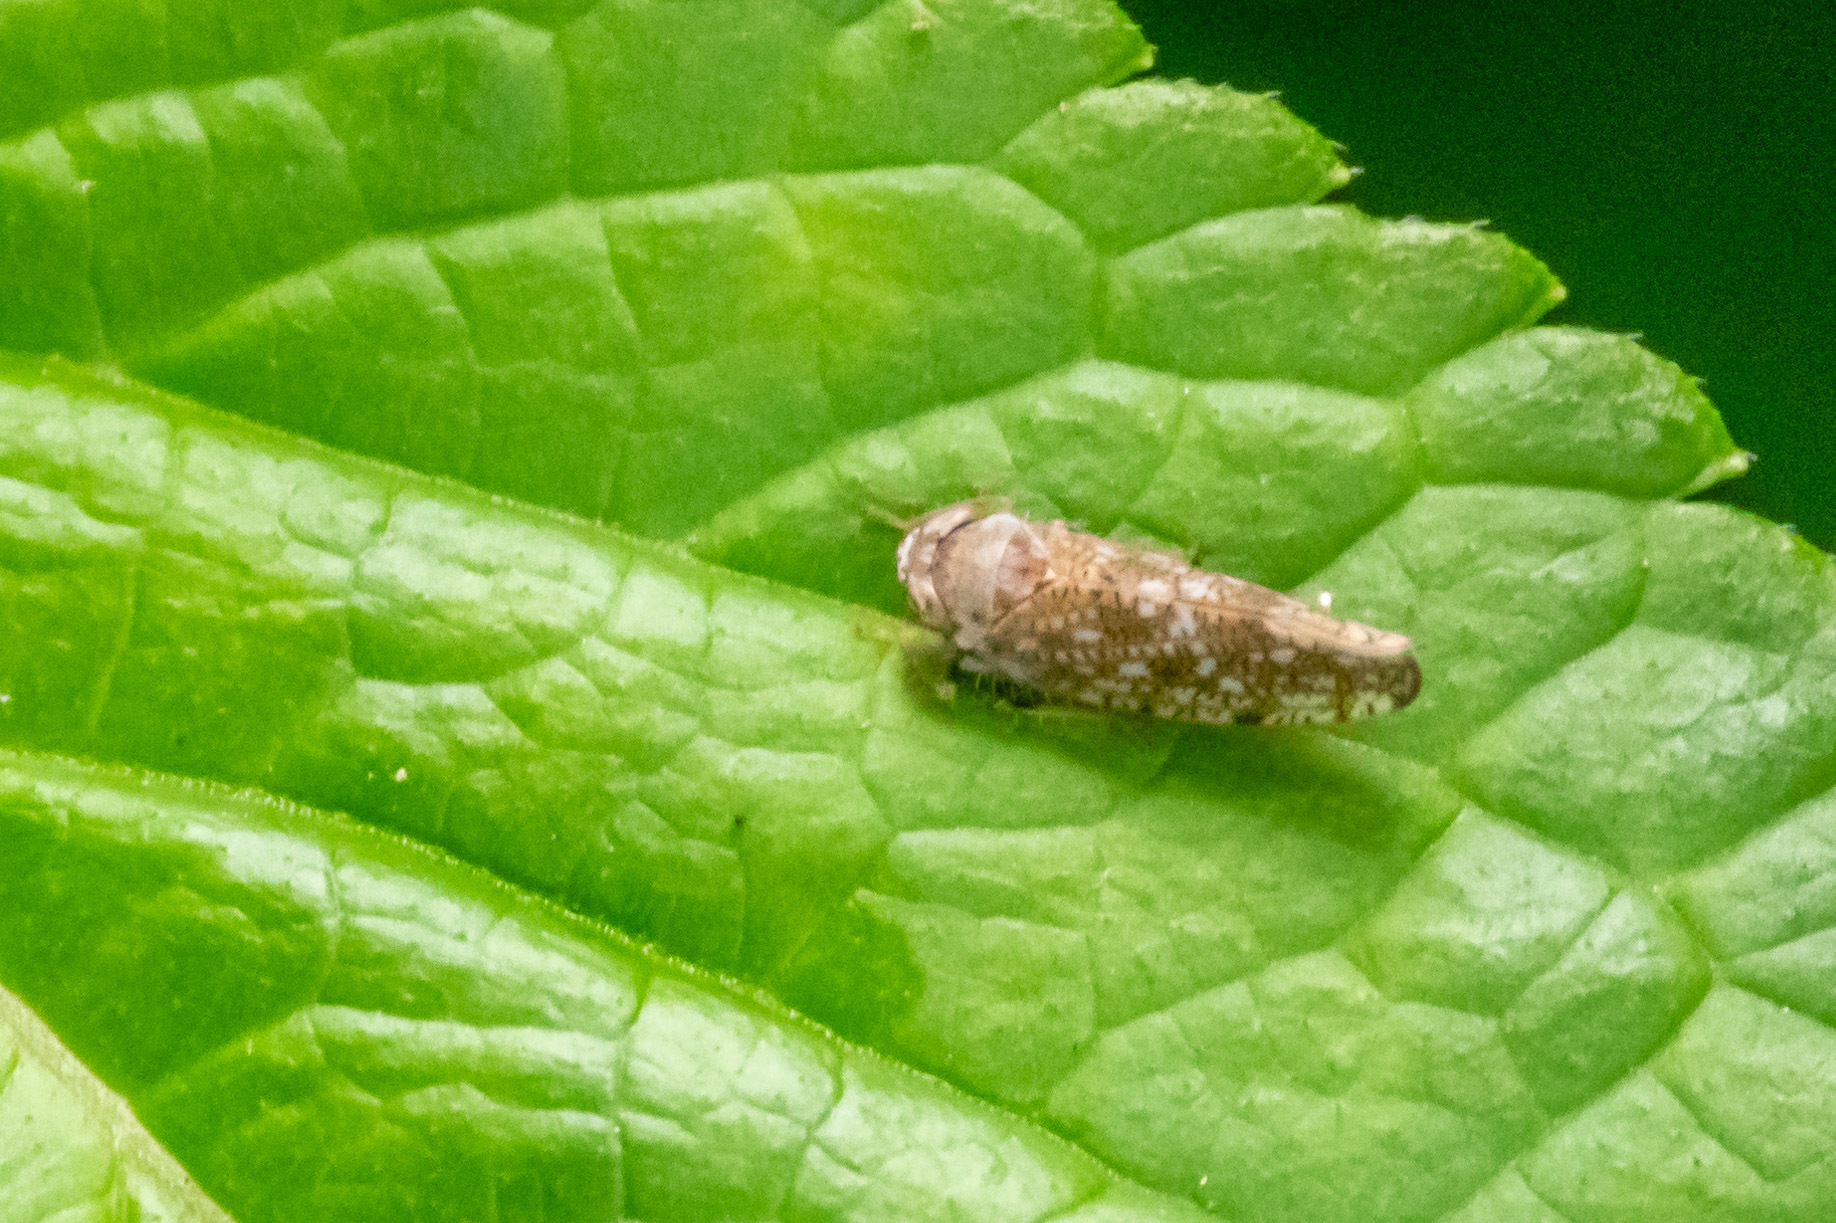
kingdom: Animalia
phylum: Arthropoda
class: Insecta
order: Hemiptera
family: Cicadellidae
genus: Orientus
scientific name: Orientus ishidae
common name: Japanese leafhopper
